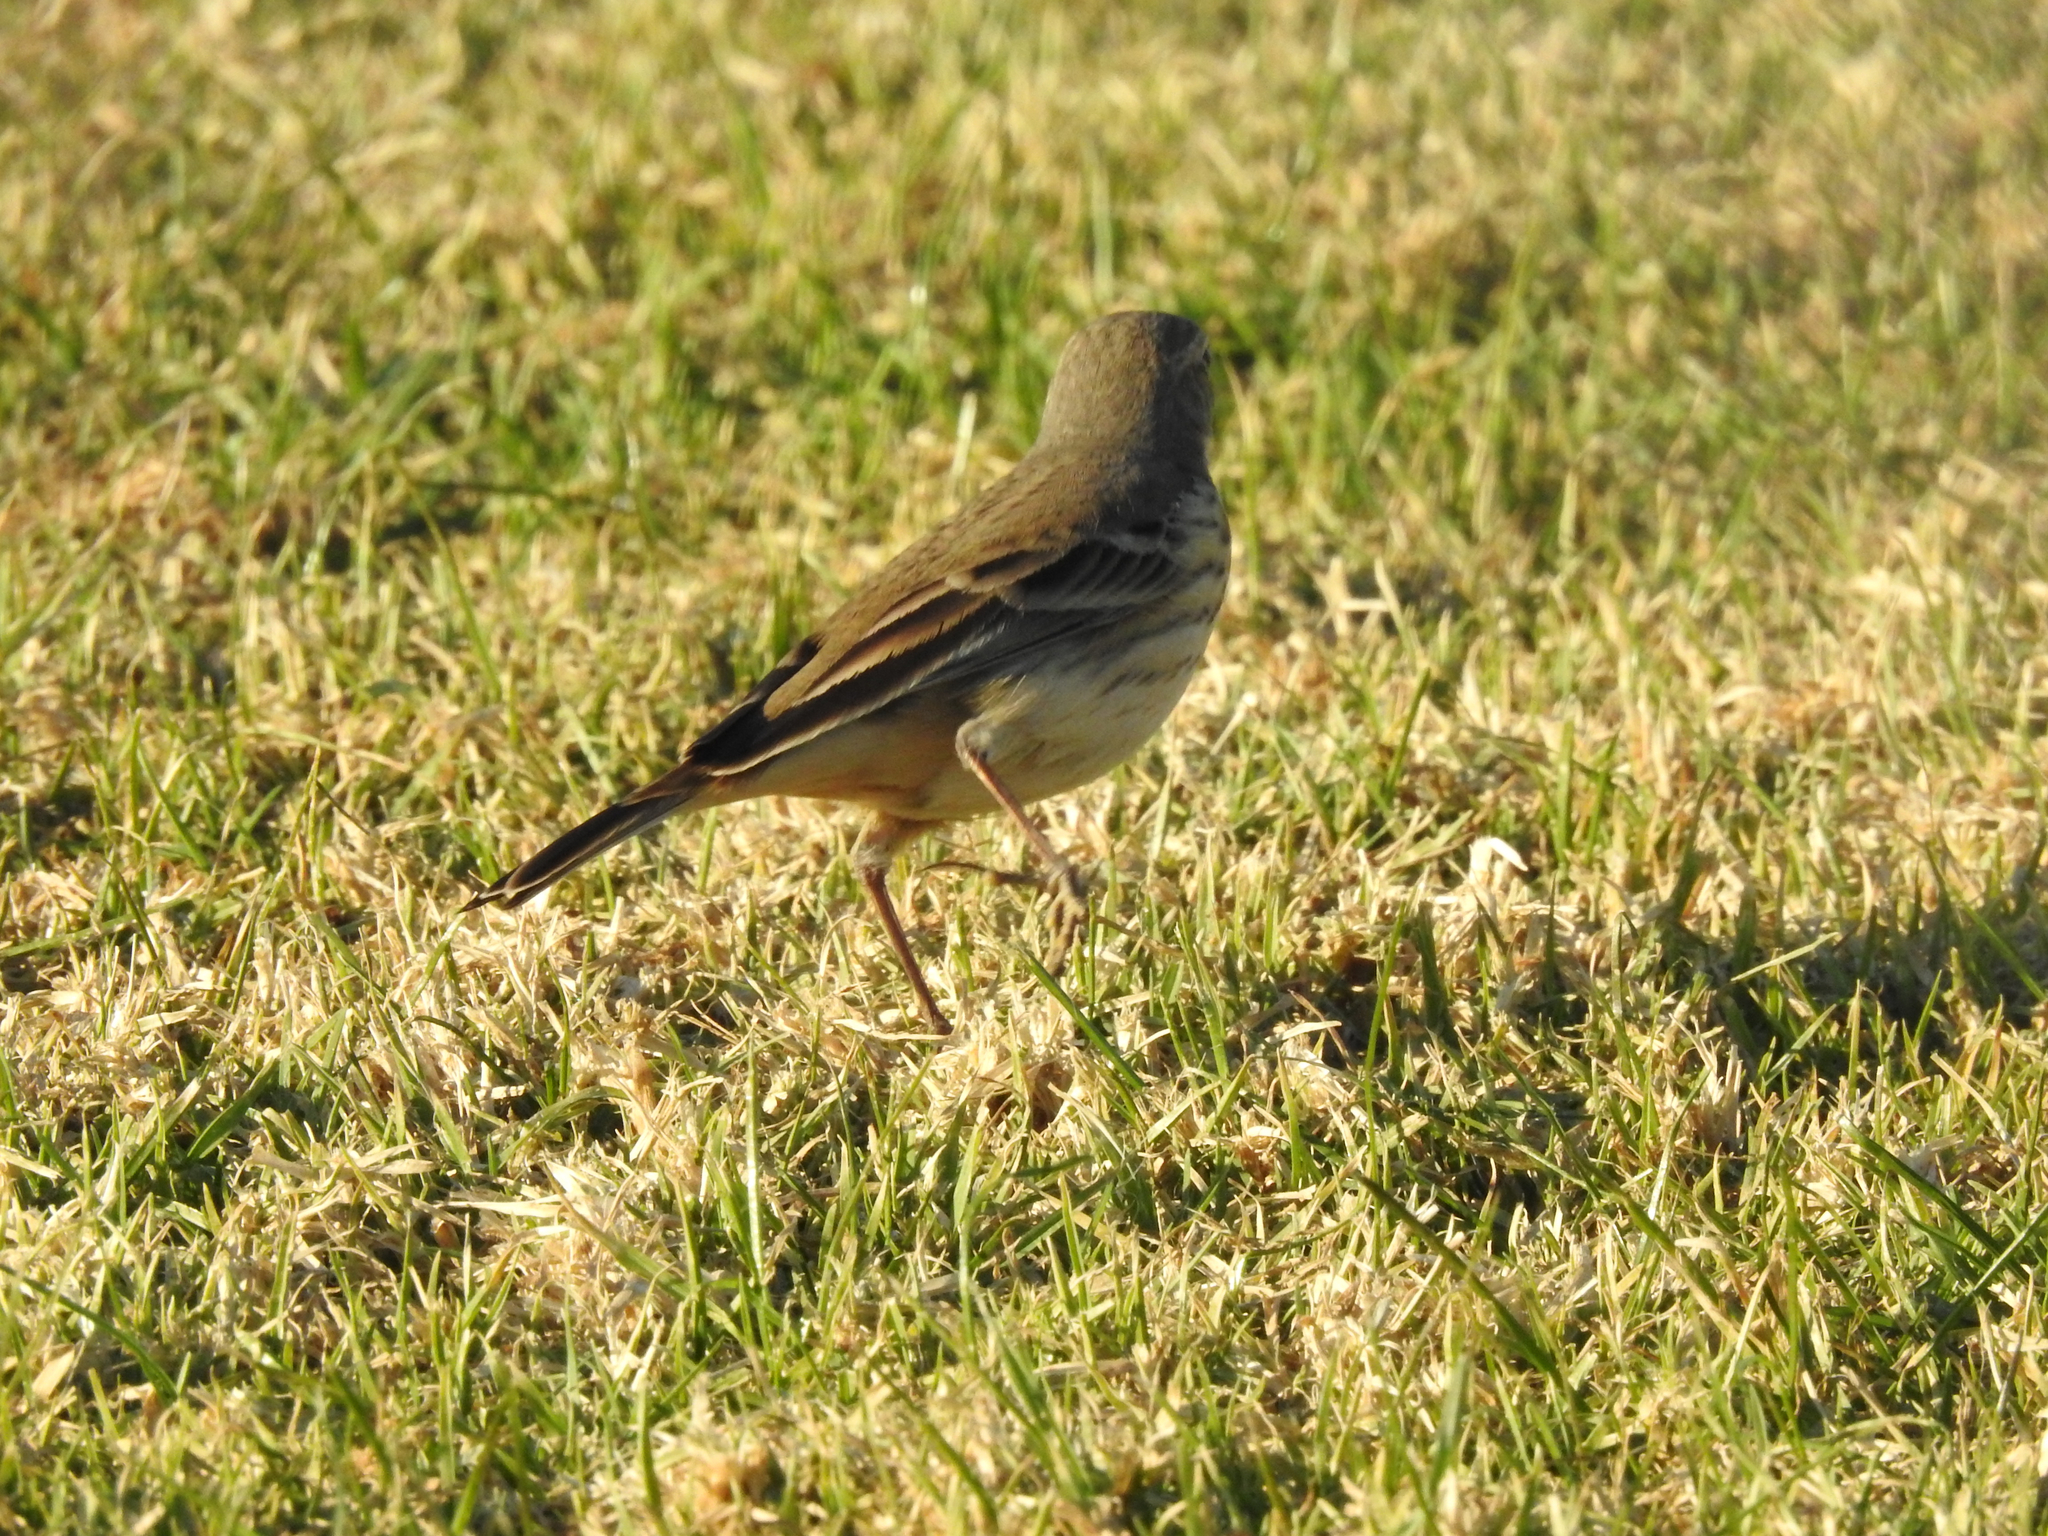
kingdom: Animalia
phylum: Chordata
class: Aves
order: Passeriformes
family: Motacillidae
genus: Anthus
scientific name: Anthus rubescens
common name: Buff-bellied pipit
